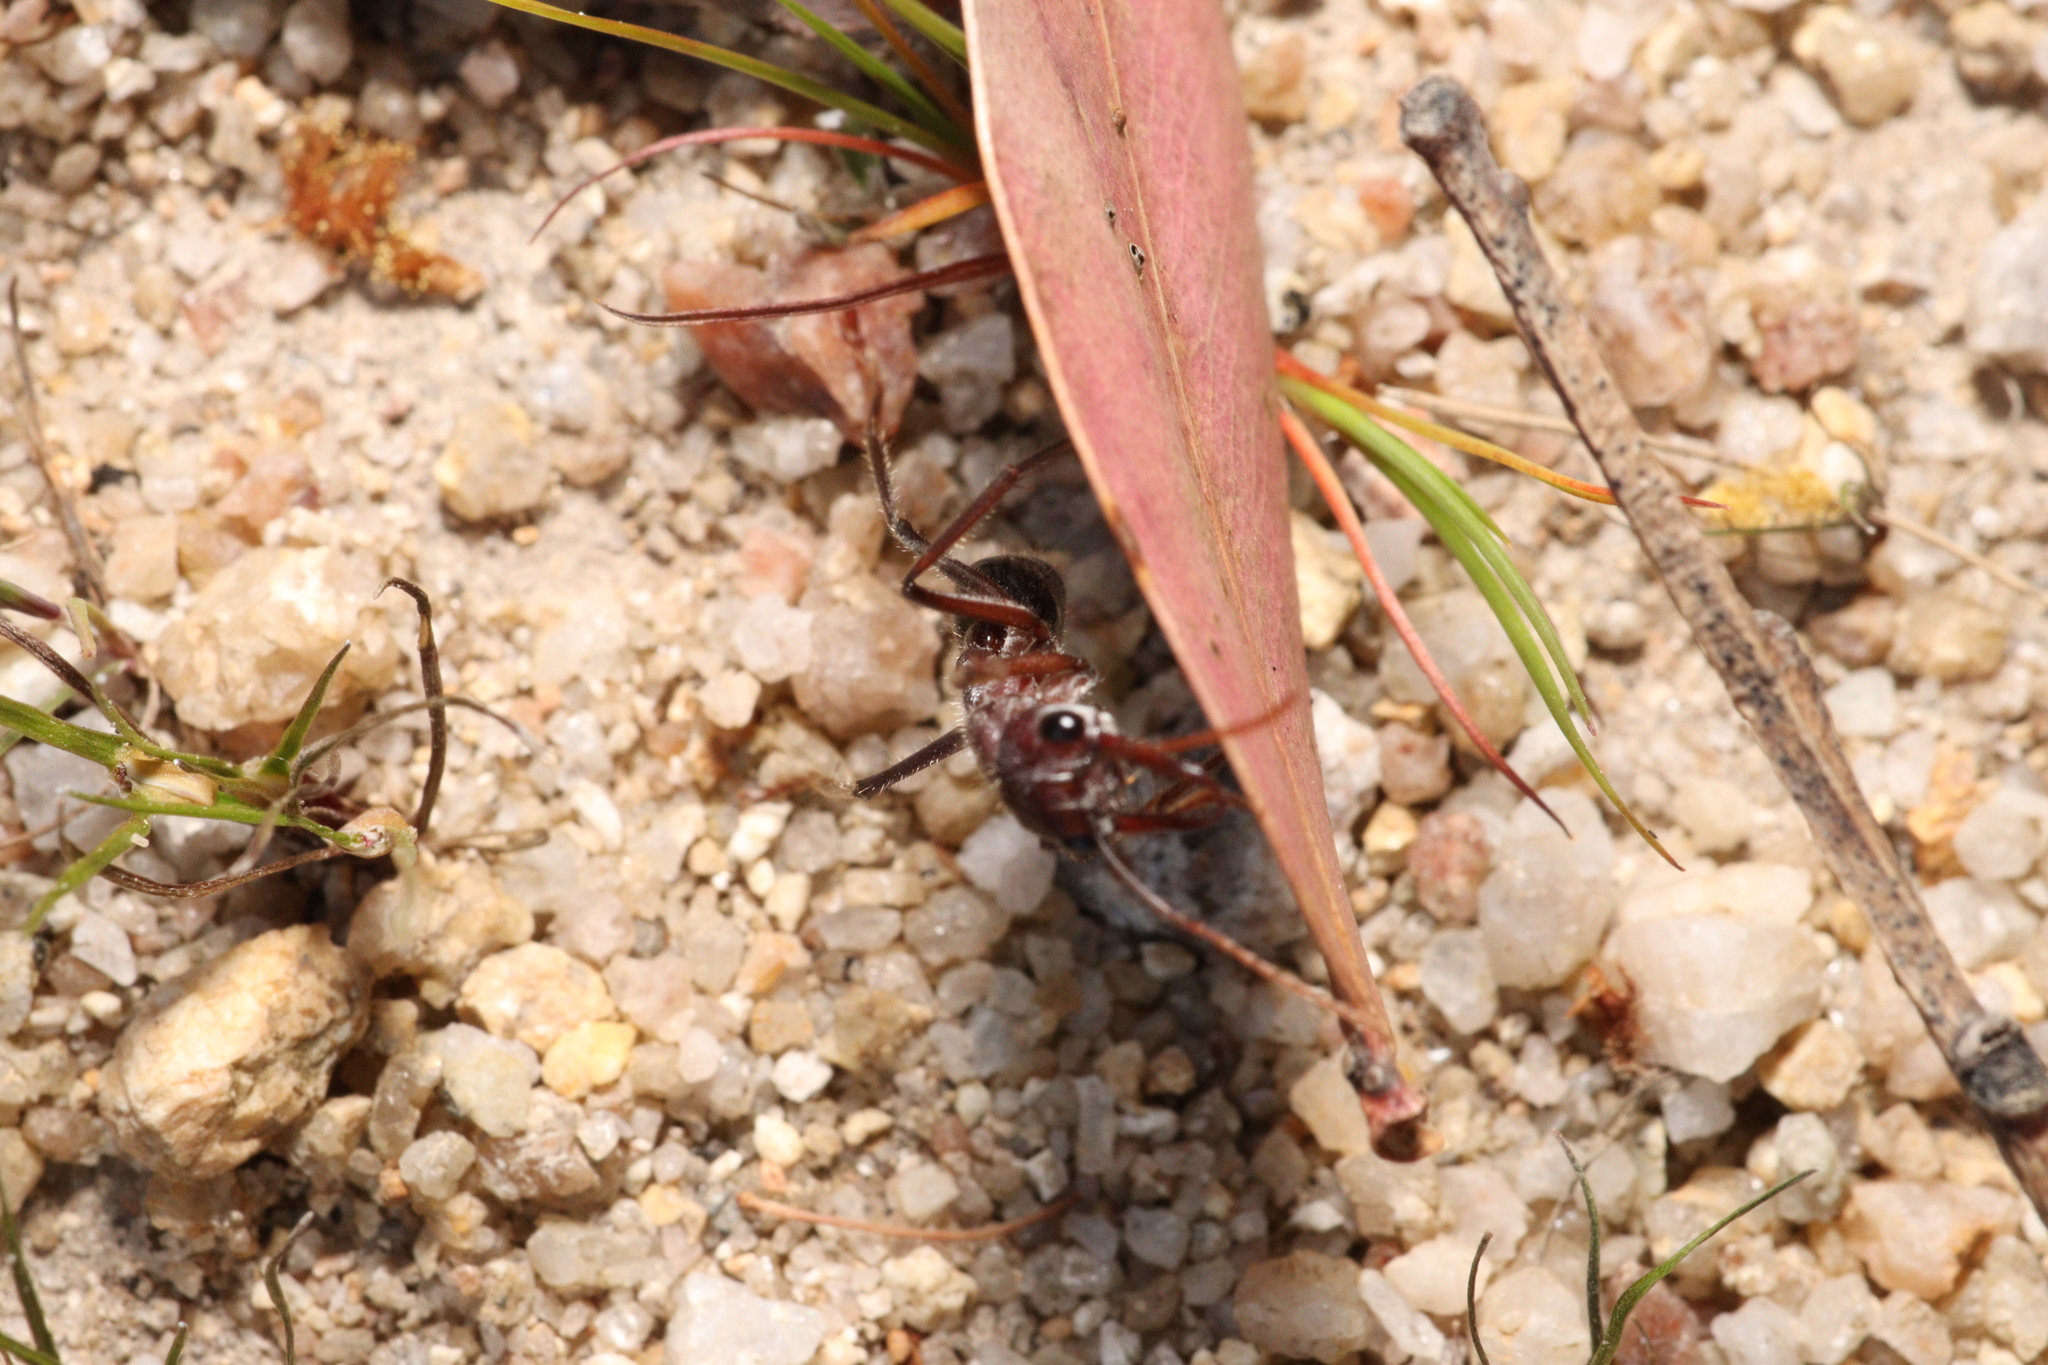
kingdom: Animalia
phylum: Arthropoda
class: Insecta
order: Hymenoptera
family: Formicidae
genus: Myrmecia
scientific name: Myrmecia simillima
